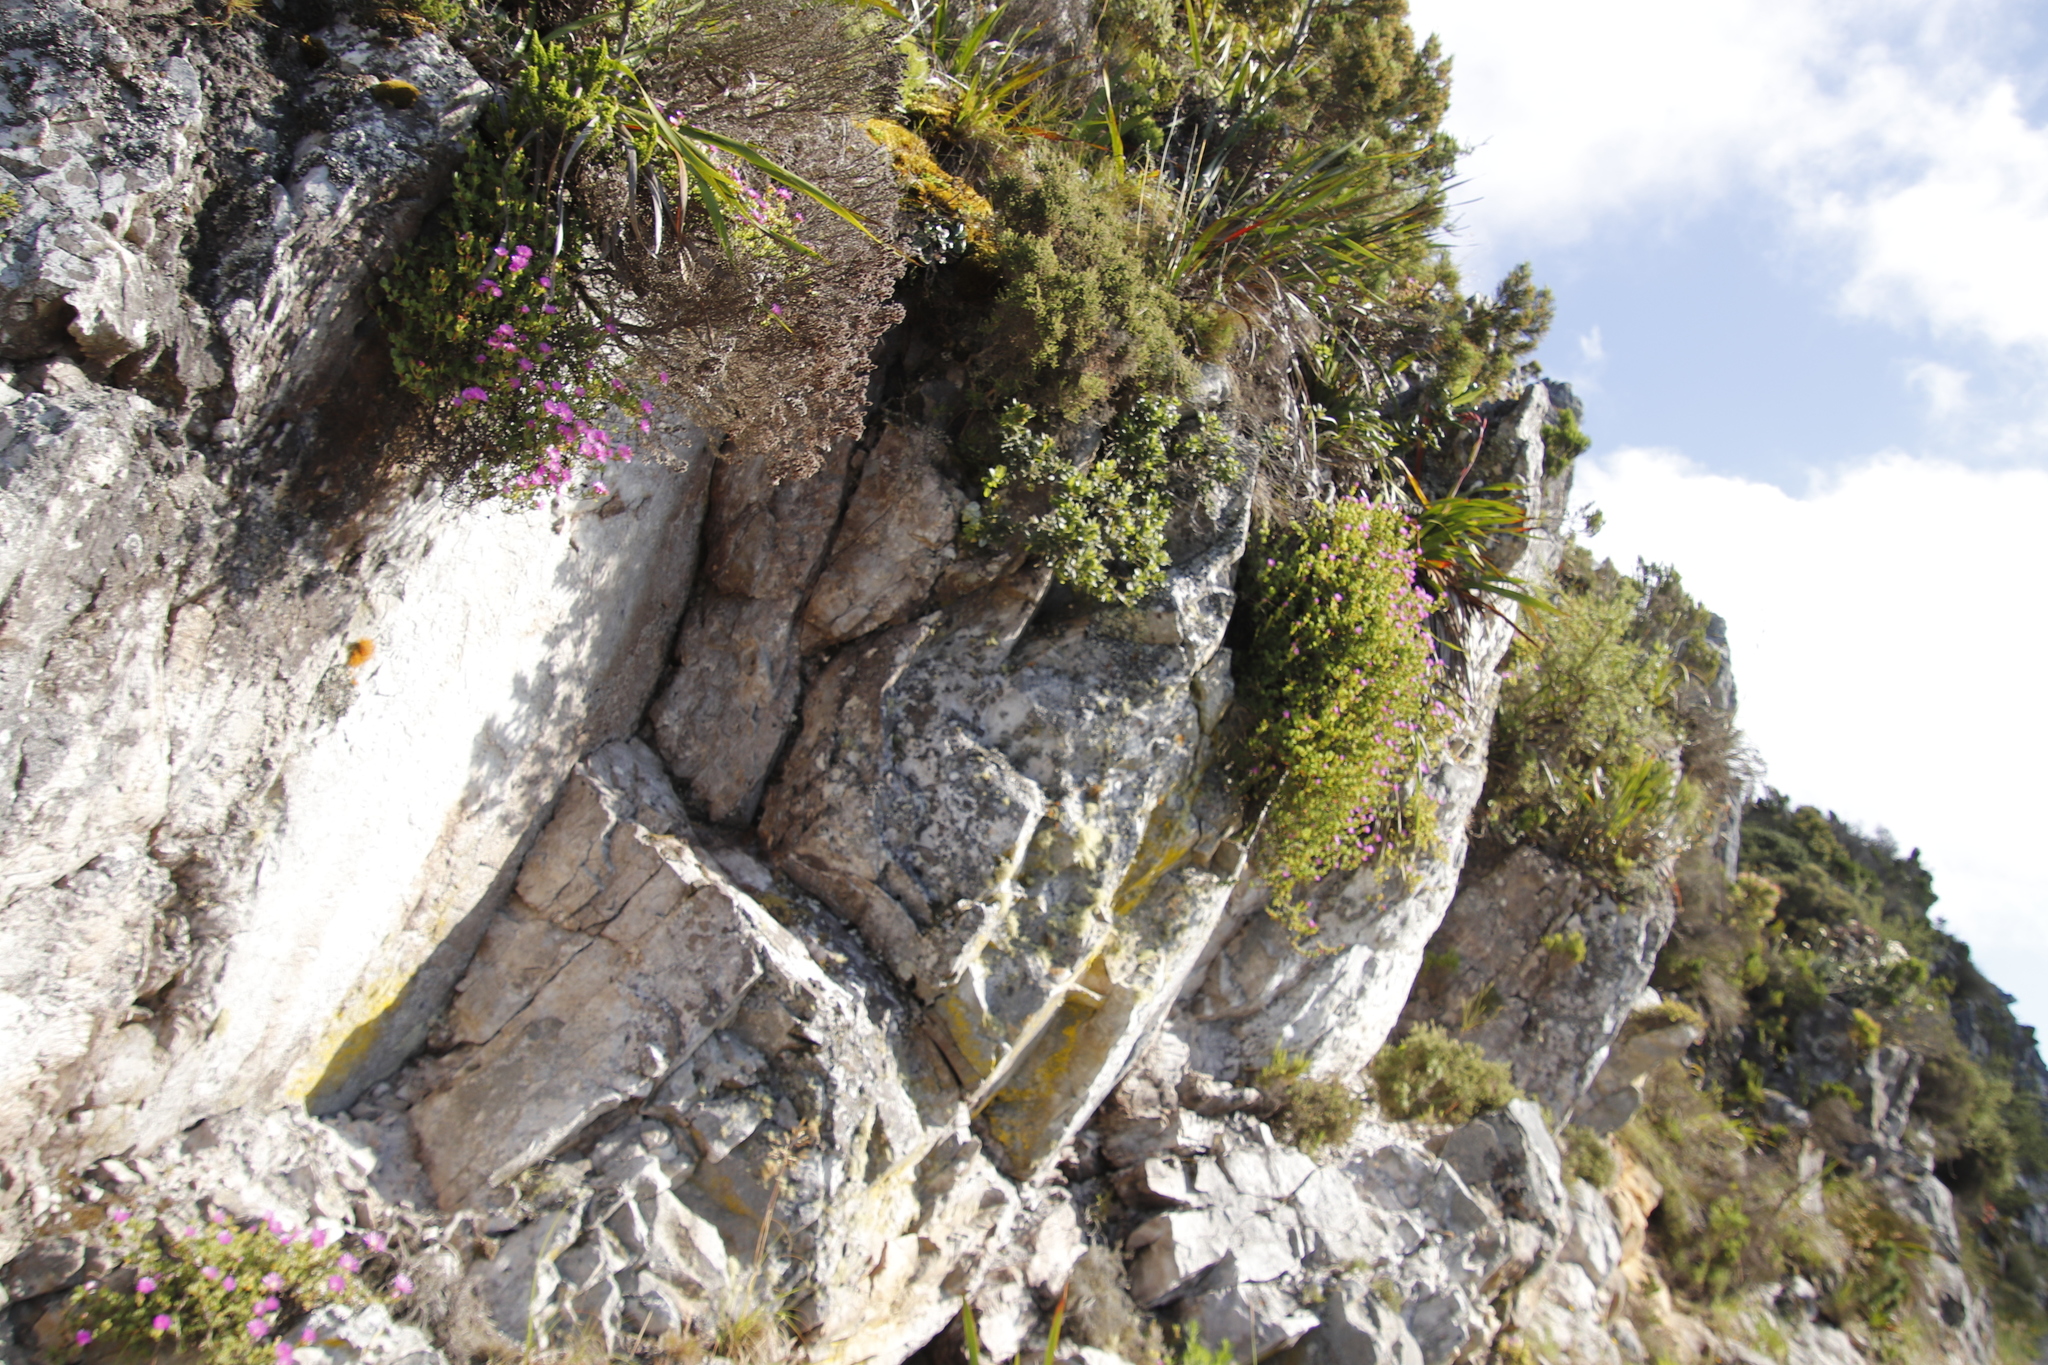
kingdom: Plantae
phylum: Tracheophyta
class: Magnoliopsida
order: Caryophyllales
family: Aizoaceae
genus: Oscularia
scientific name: Oscularia falciformis
